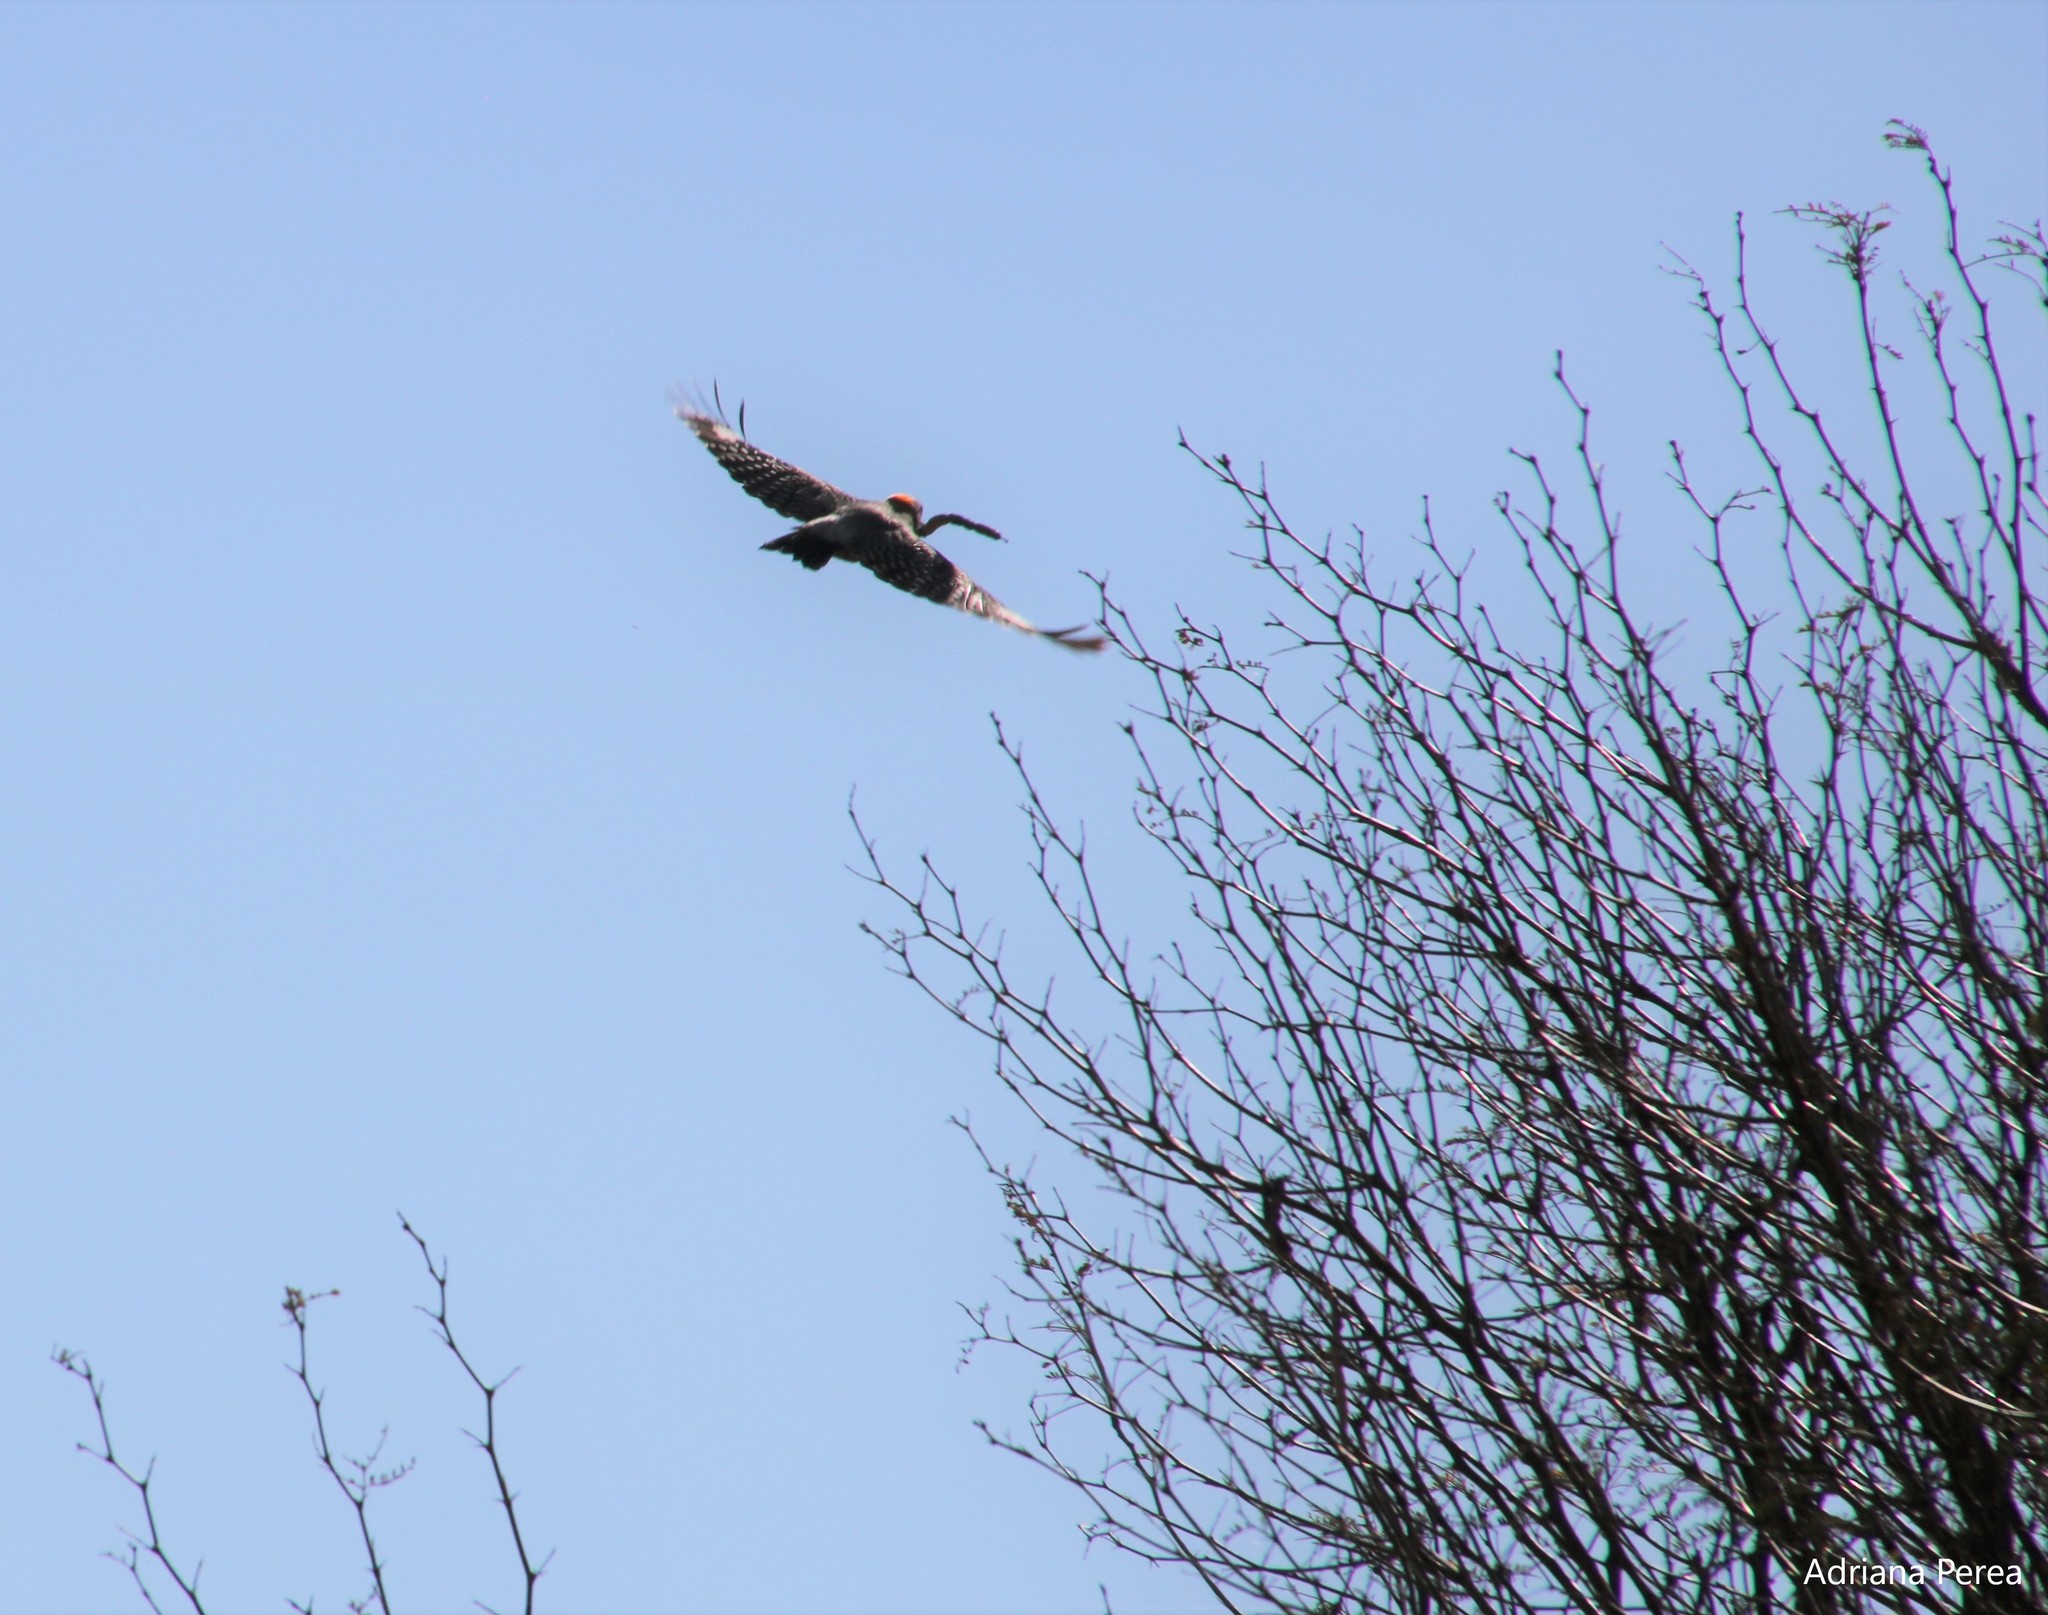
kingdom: Animalia
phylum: Chordata
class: Aves
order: Piciformes
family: Picidae
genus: Melanerpes
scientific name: Melanerpes aurifrons
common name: Golden-fronted woodpecker
